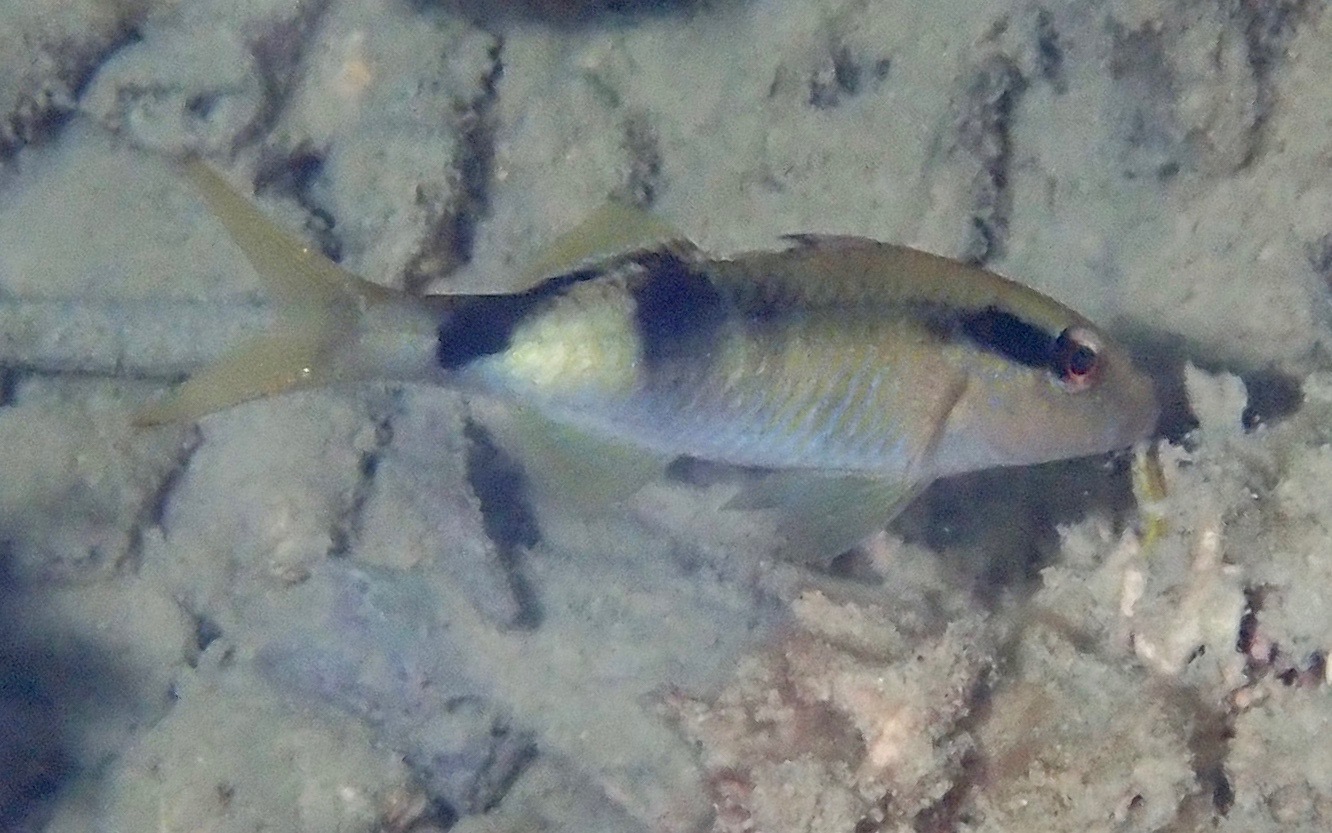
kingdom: Animalia
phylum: Chordata
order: Perciformes
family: Mullidae
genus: Parupeneus
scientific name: Parupeneus multifasciatus
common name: Manybar goatfish
